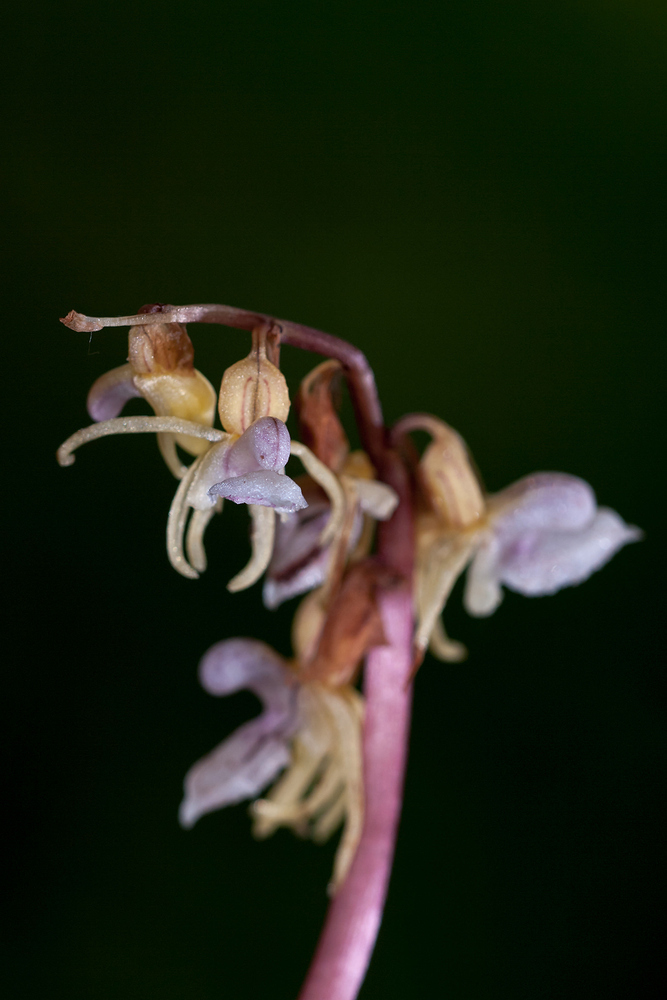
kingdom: Plantae
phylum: Tracheophyta
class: Liliopsida
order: Asparagales
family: Orchidaceae
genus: Epipogium
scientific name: Epipogium aphyllum
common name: Ghost orchid
